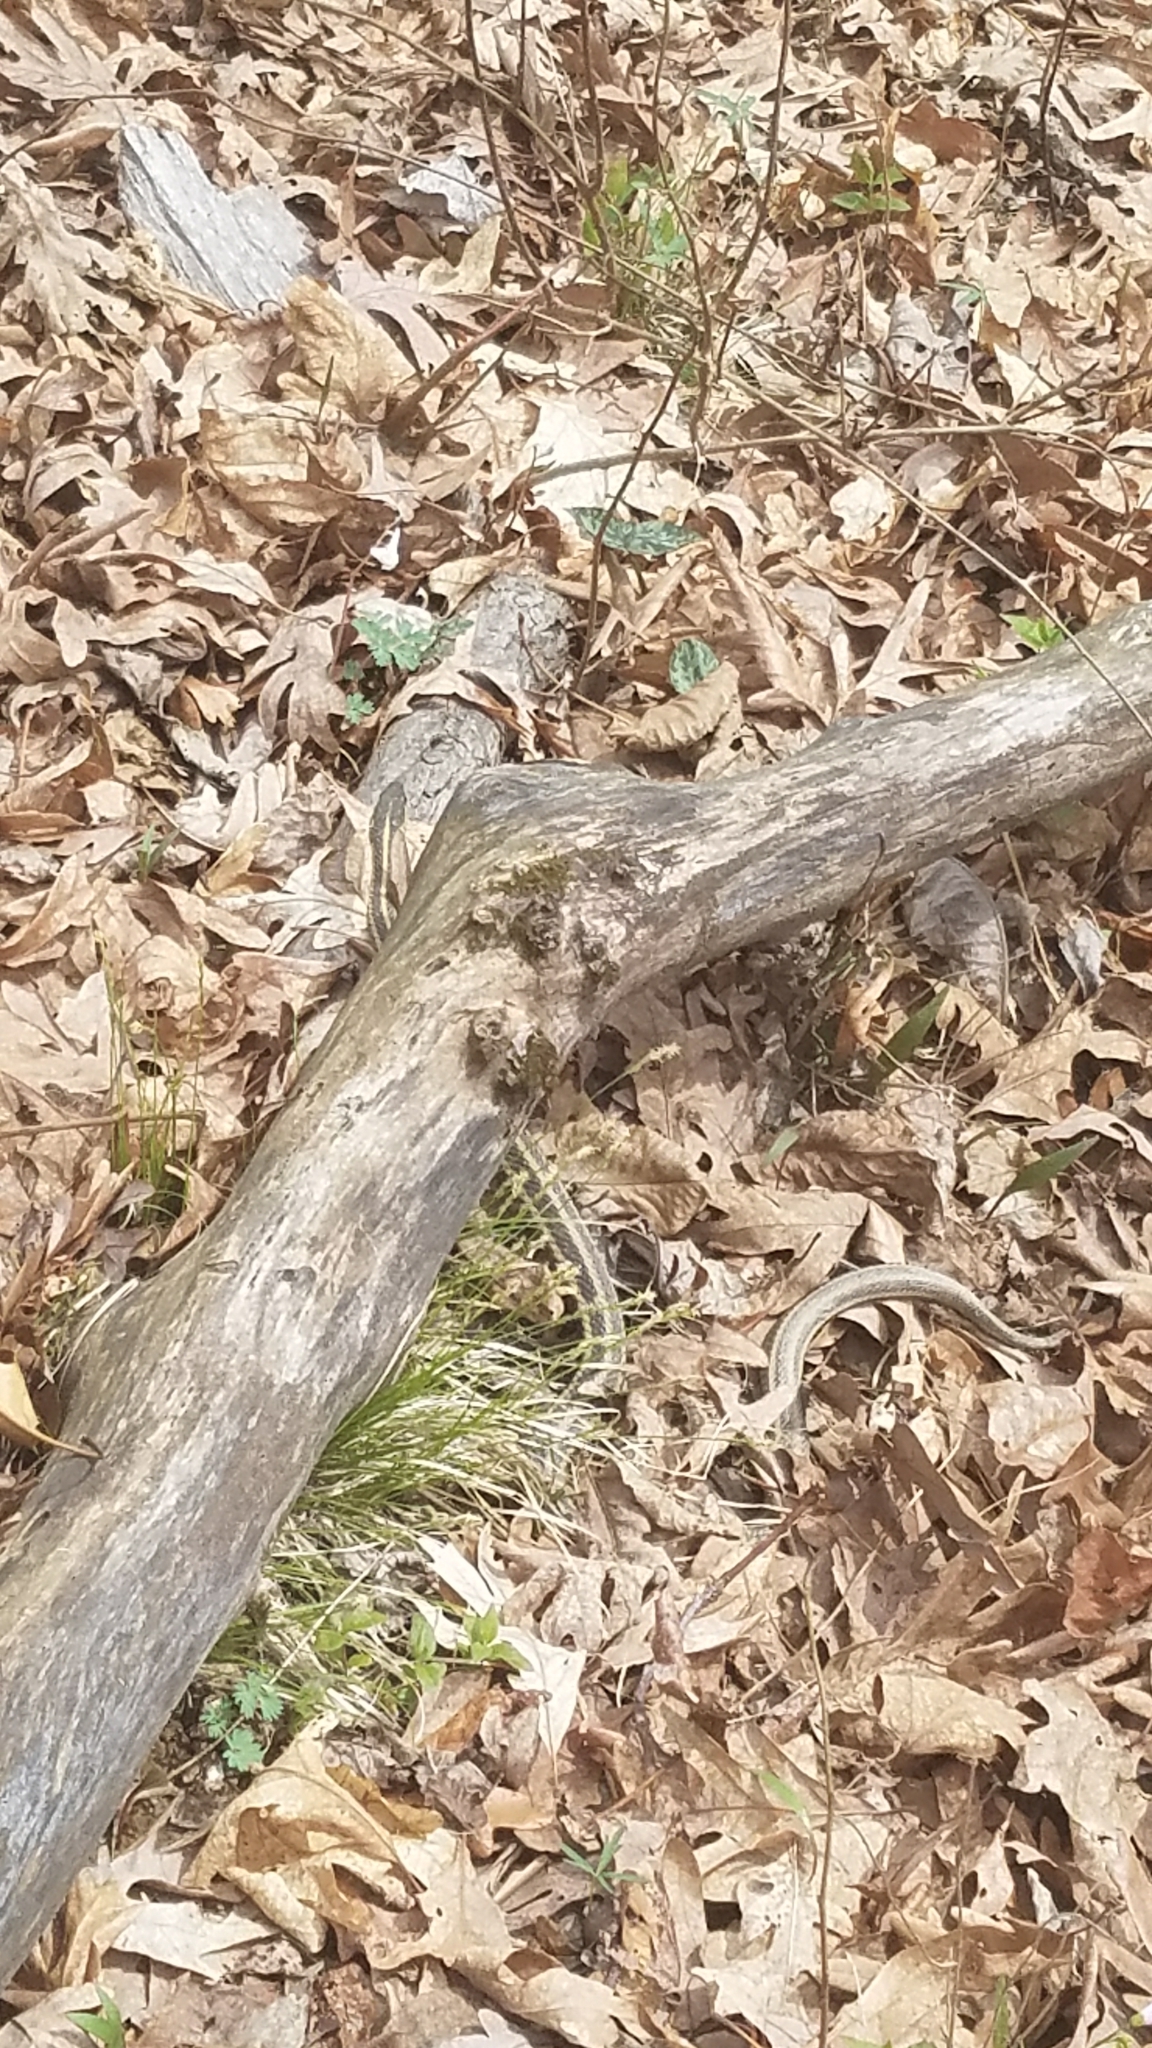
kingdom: Animalia
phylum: Chordata
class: Squamata
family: Colubridae
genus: Thamnophis
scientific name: Thamnophis sirtalis
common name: Common garter snake
